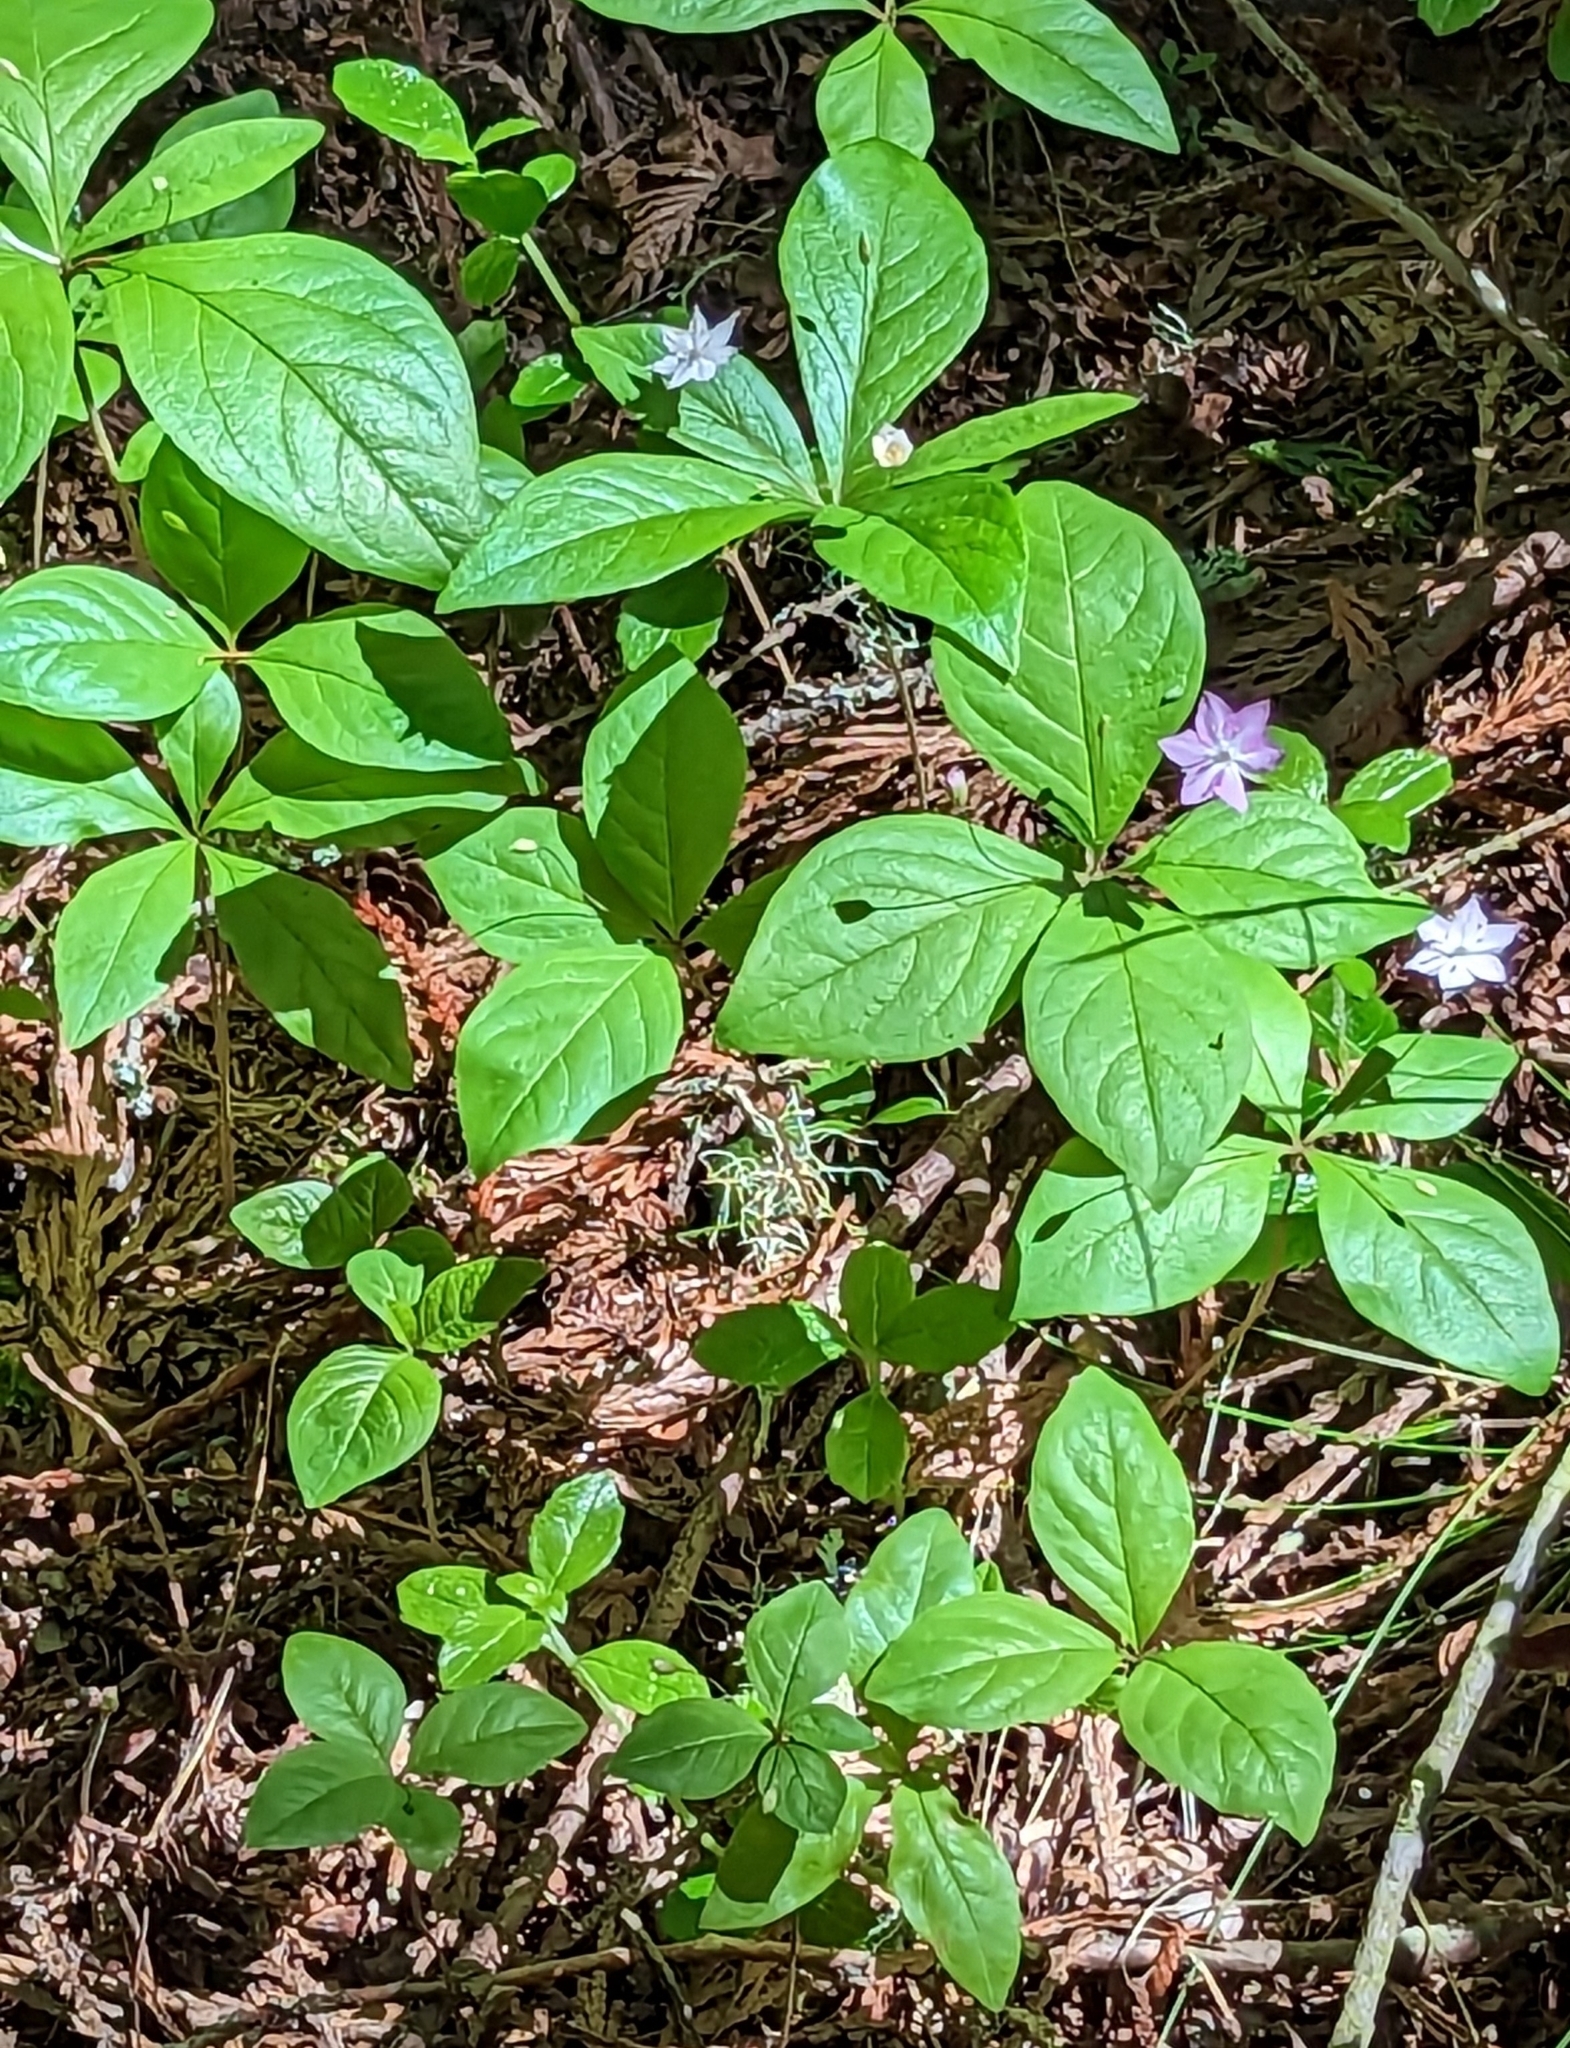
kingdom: Plantae
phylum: Tracheophyta
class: Magnoliopsida
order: Ericales
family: Primulaceae
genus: Lysimachia
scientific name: Lysimachia latifolia
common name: Pacific starflower
